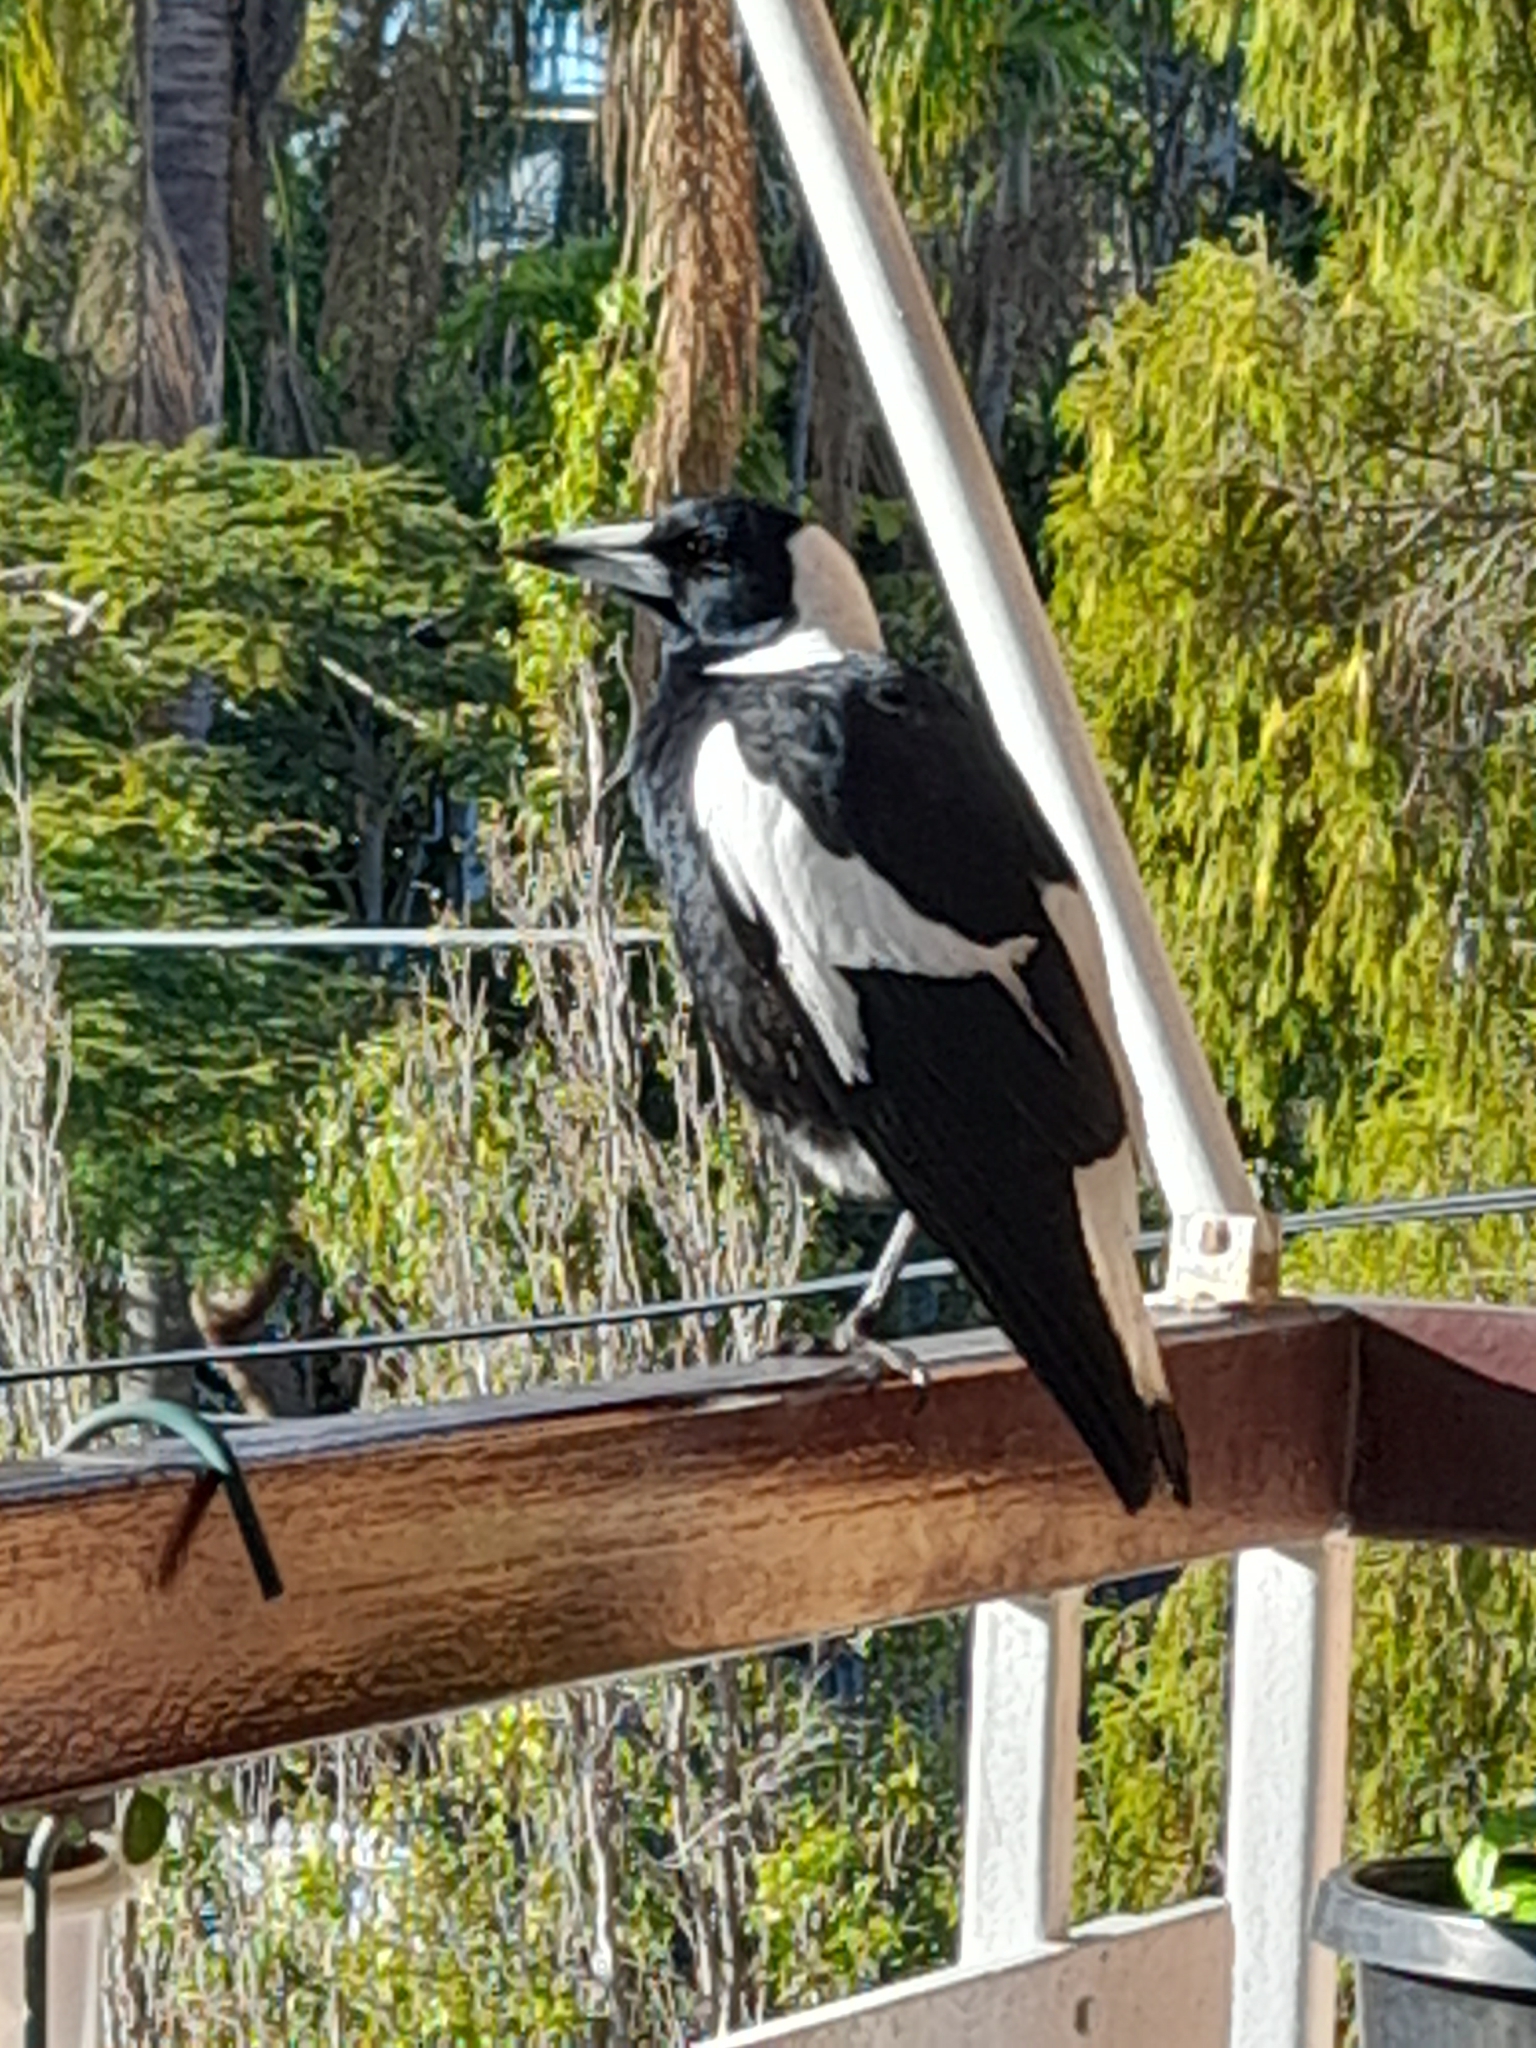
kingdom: Animalia
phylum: Chordata
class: Aves
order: Passeriformes
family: Cracticidae
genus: Gymnorhina
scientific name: Gymnorhina tibicen
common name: Australian magpie
